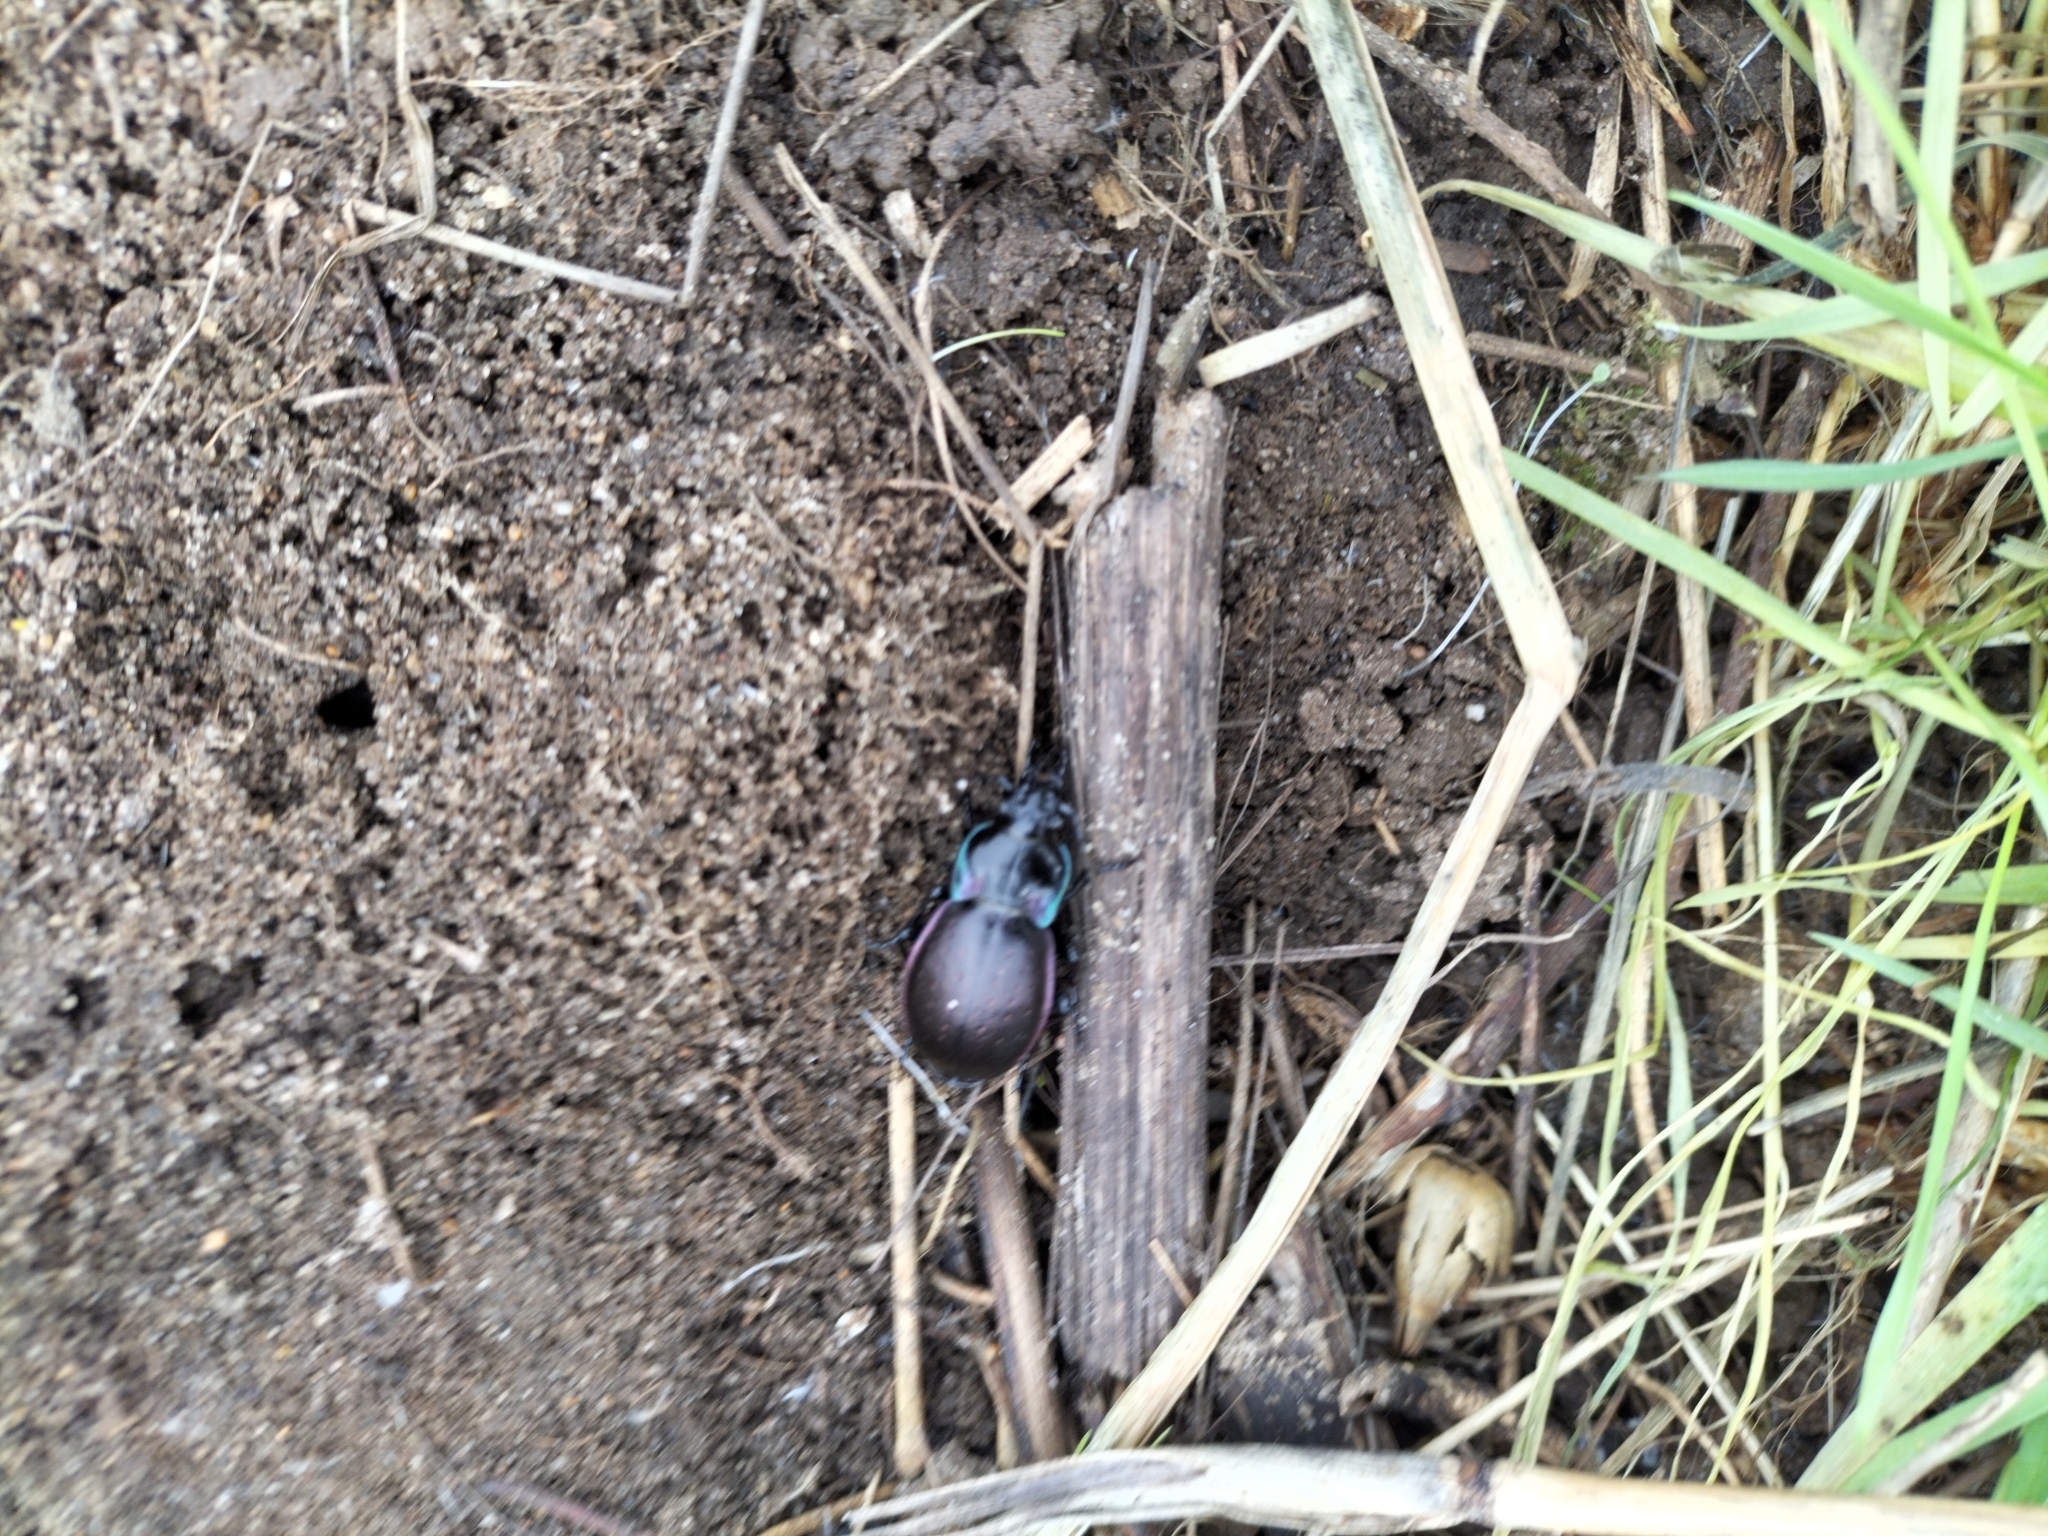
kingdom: Animalia
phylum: Arthropoda
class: Insecta
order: Coleoptera
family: Carabidae
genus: Carabus
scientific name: Carabus nemoralis
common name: European ground beetle
